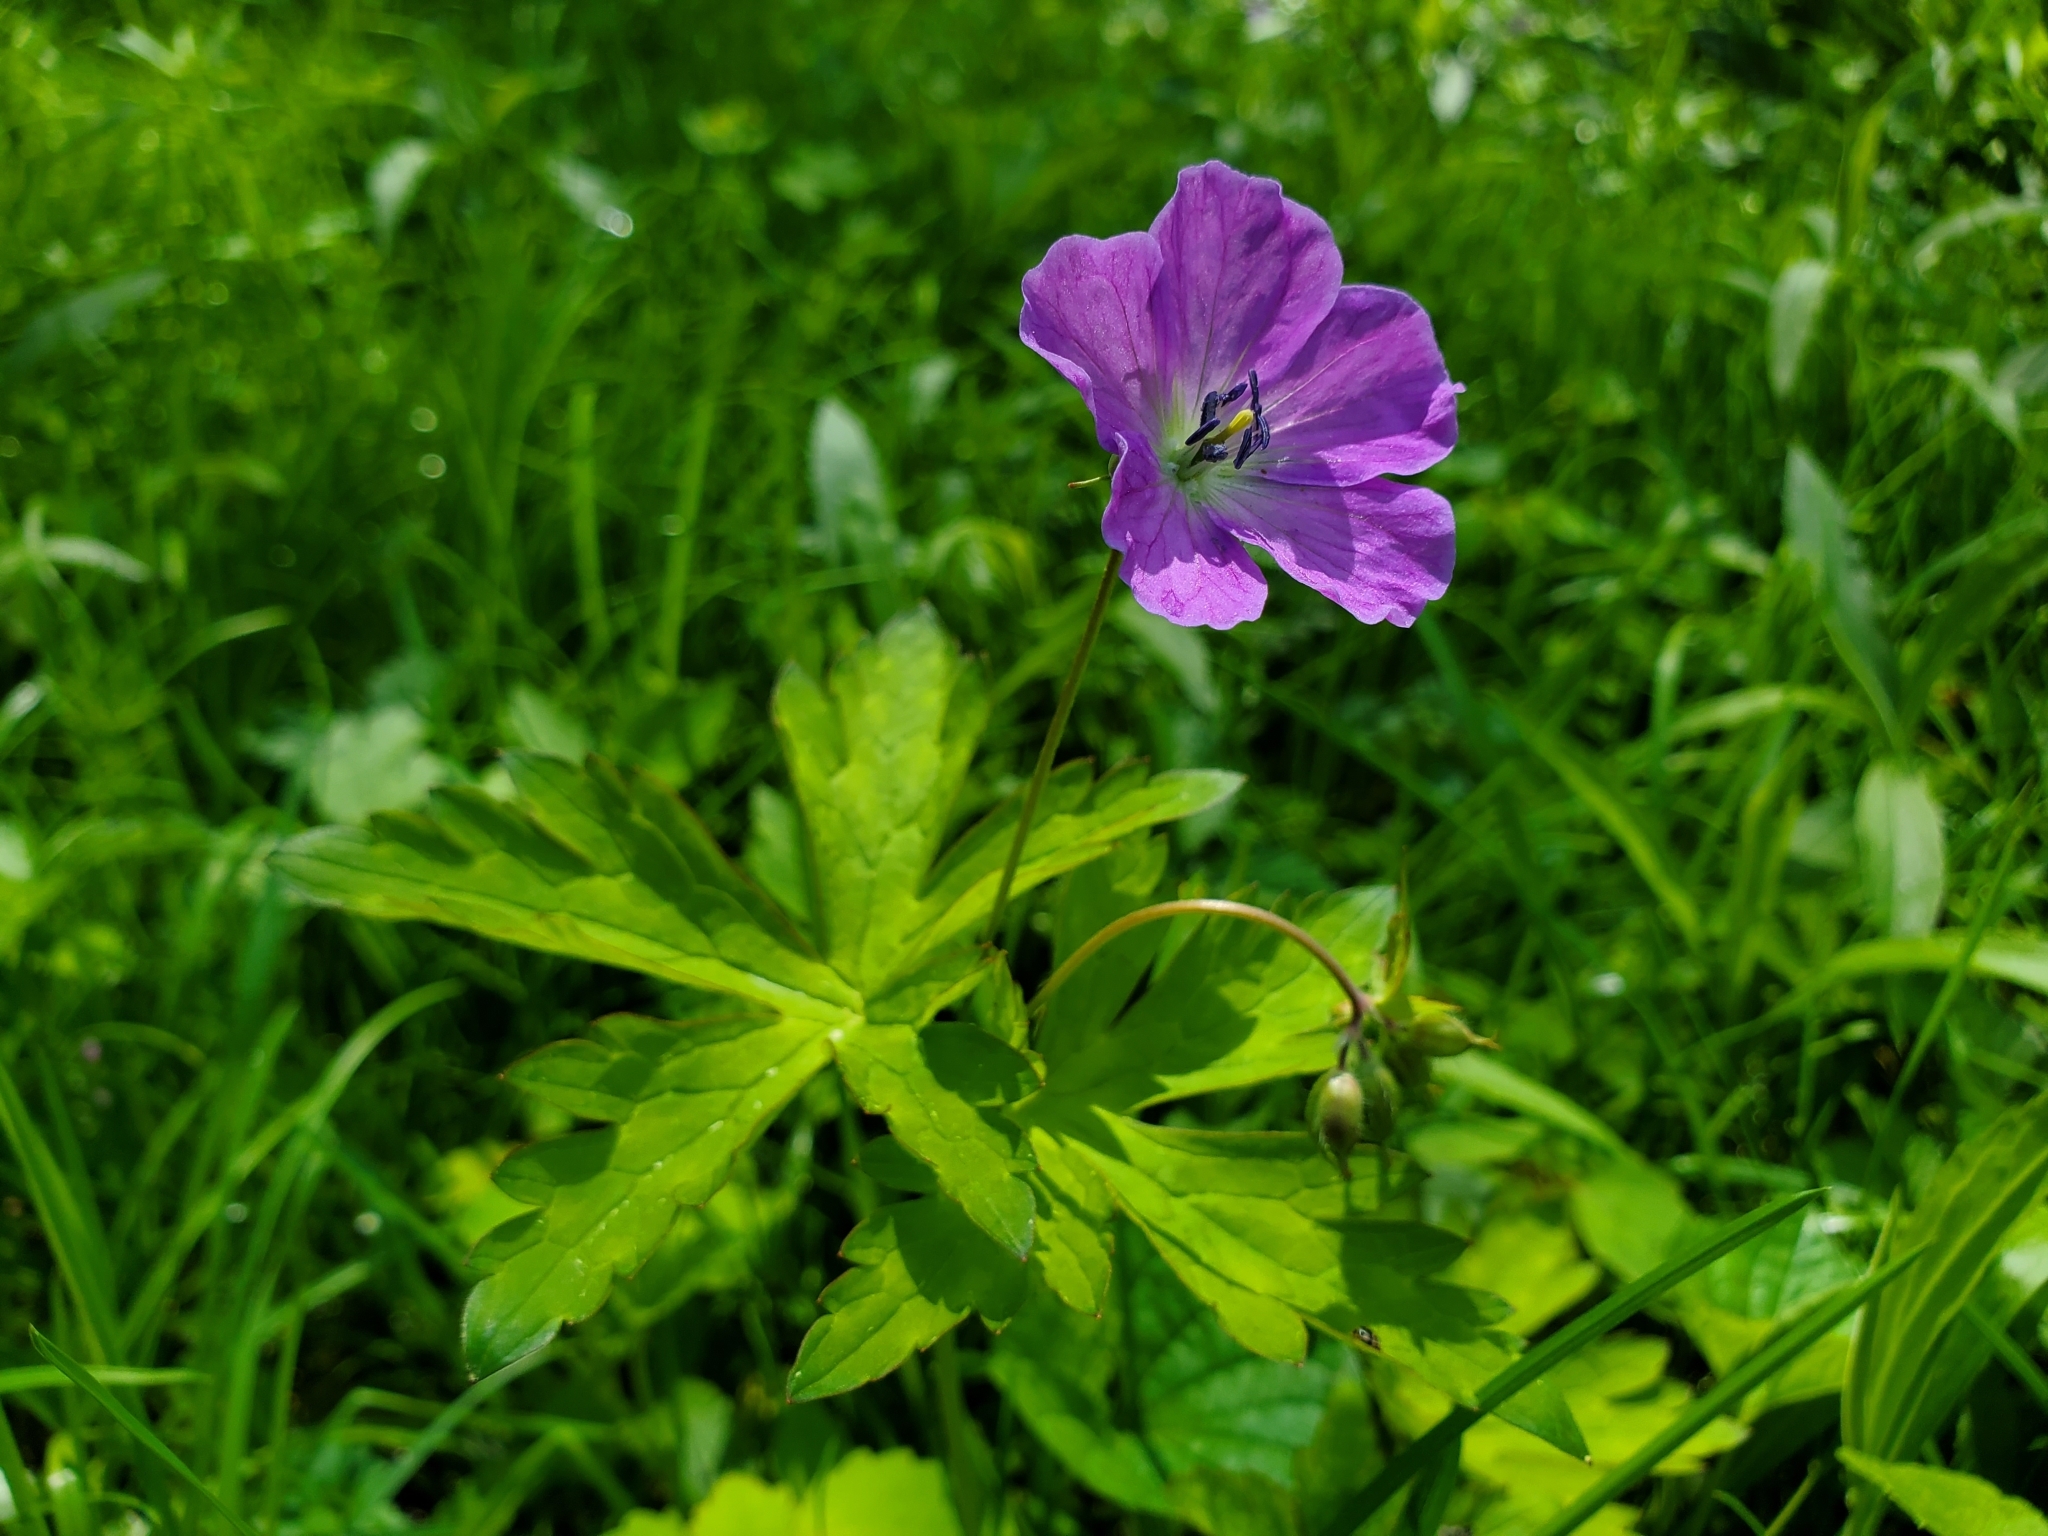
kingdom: Plantae
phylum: Tracheophyta
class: Magnoliopsida
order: Geraniales
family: Geraniaceae
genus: Geranium
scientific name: Geranium maculatum
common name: Spotted geranium
